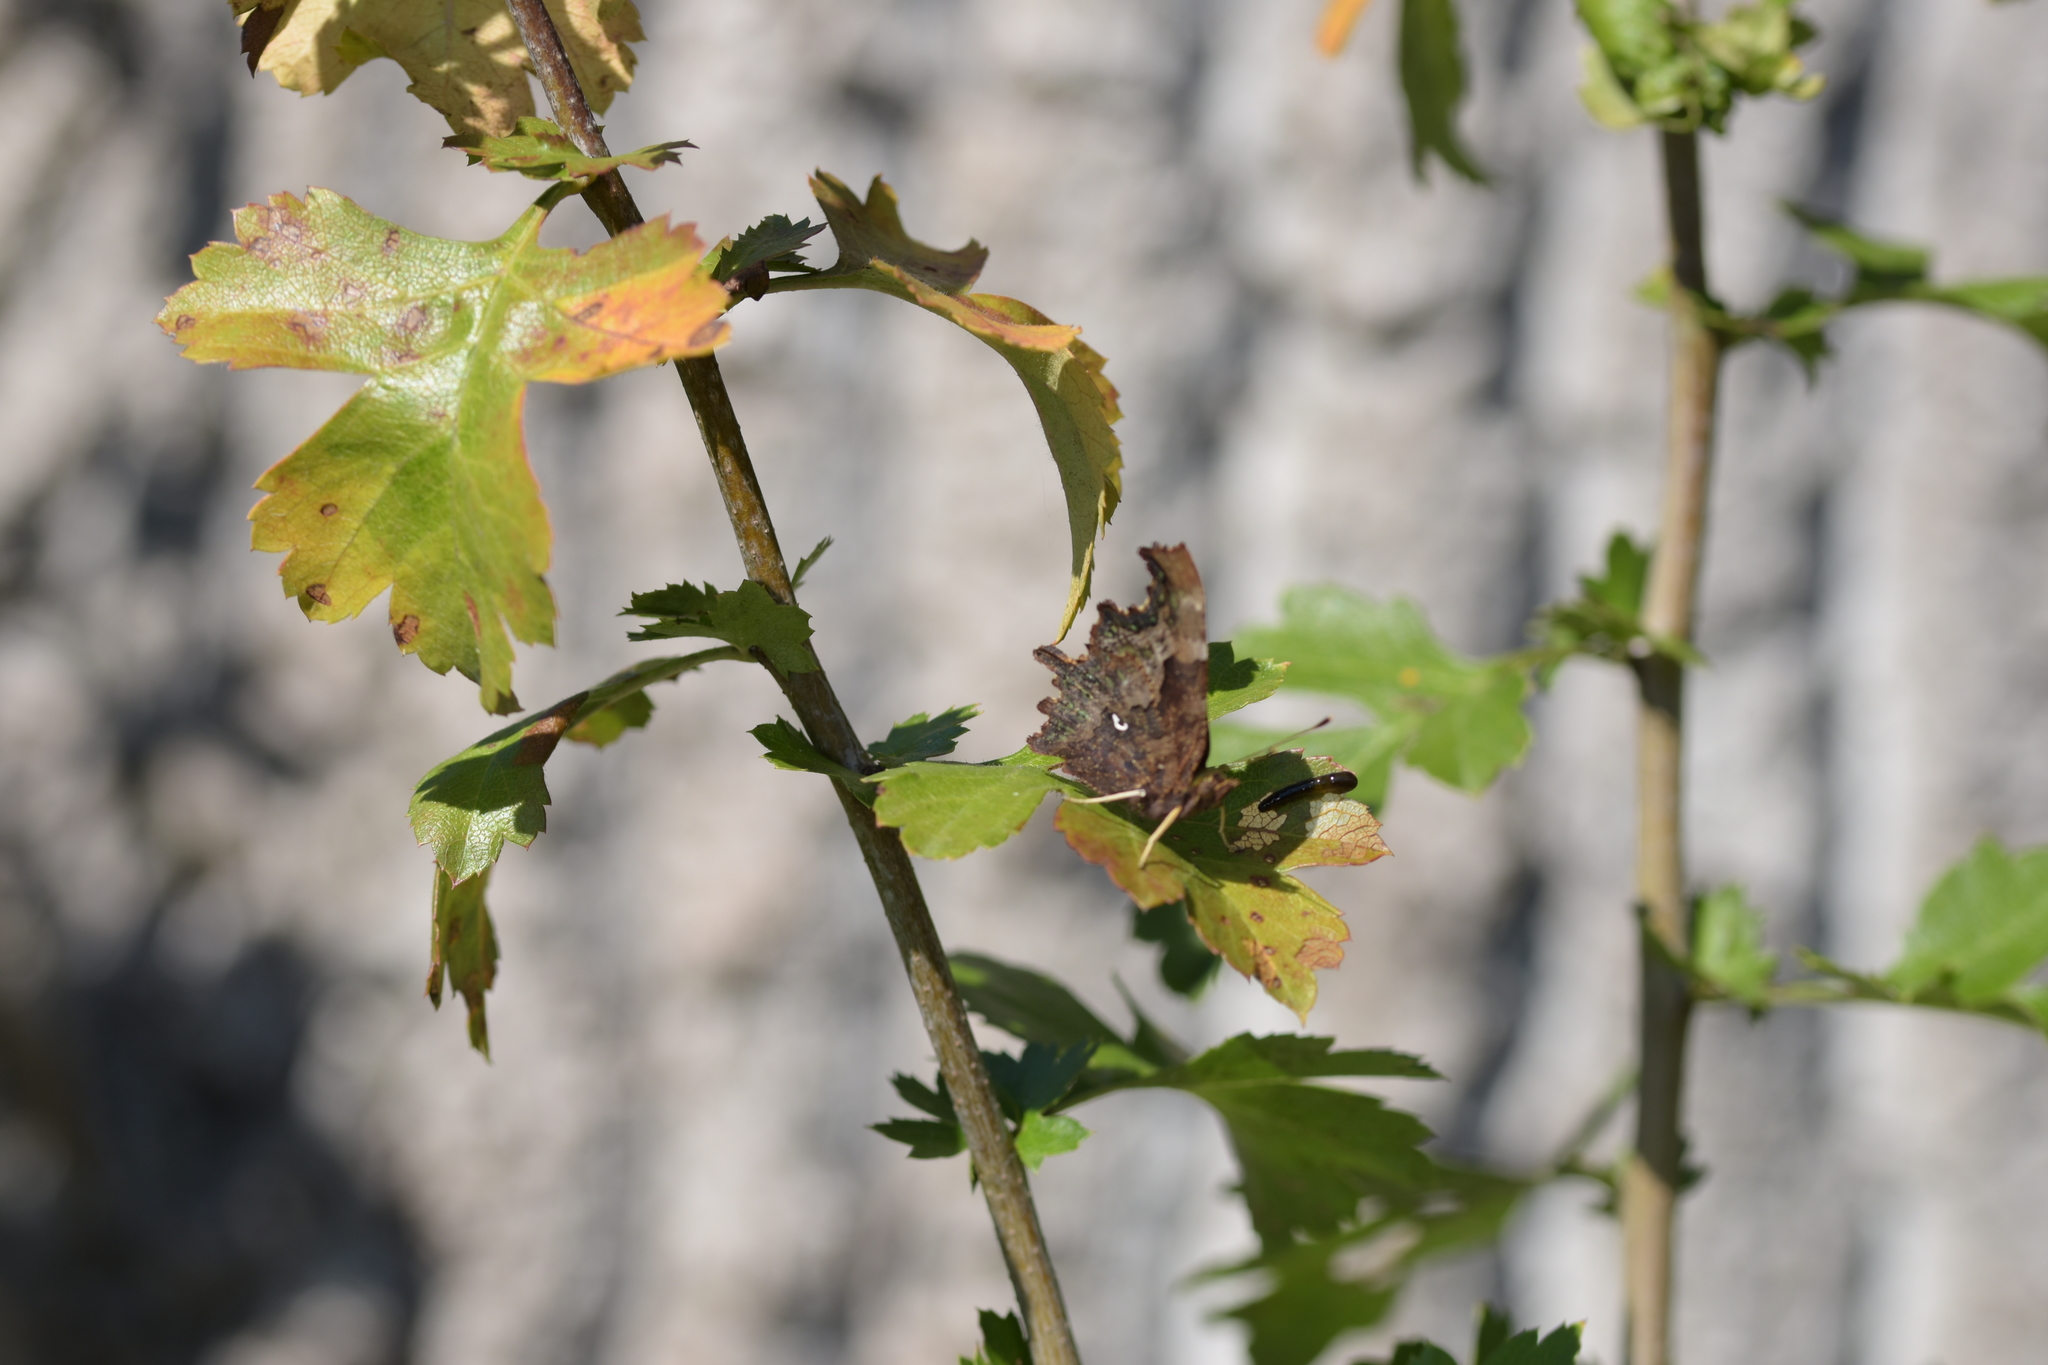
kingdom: Animalia
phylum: Arthropoda
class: Insecta
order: Lepidoptera
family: Nymphalidae
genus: Polygonia
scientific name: Polygonia c-album
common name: Comma
